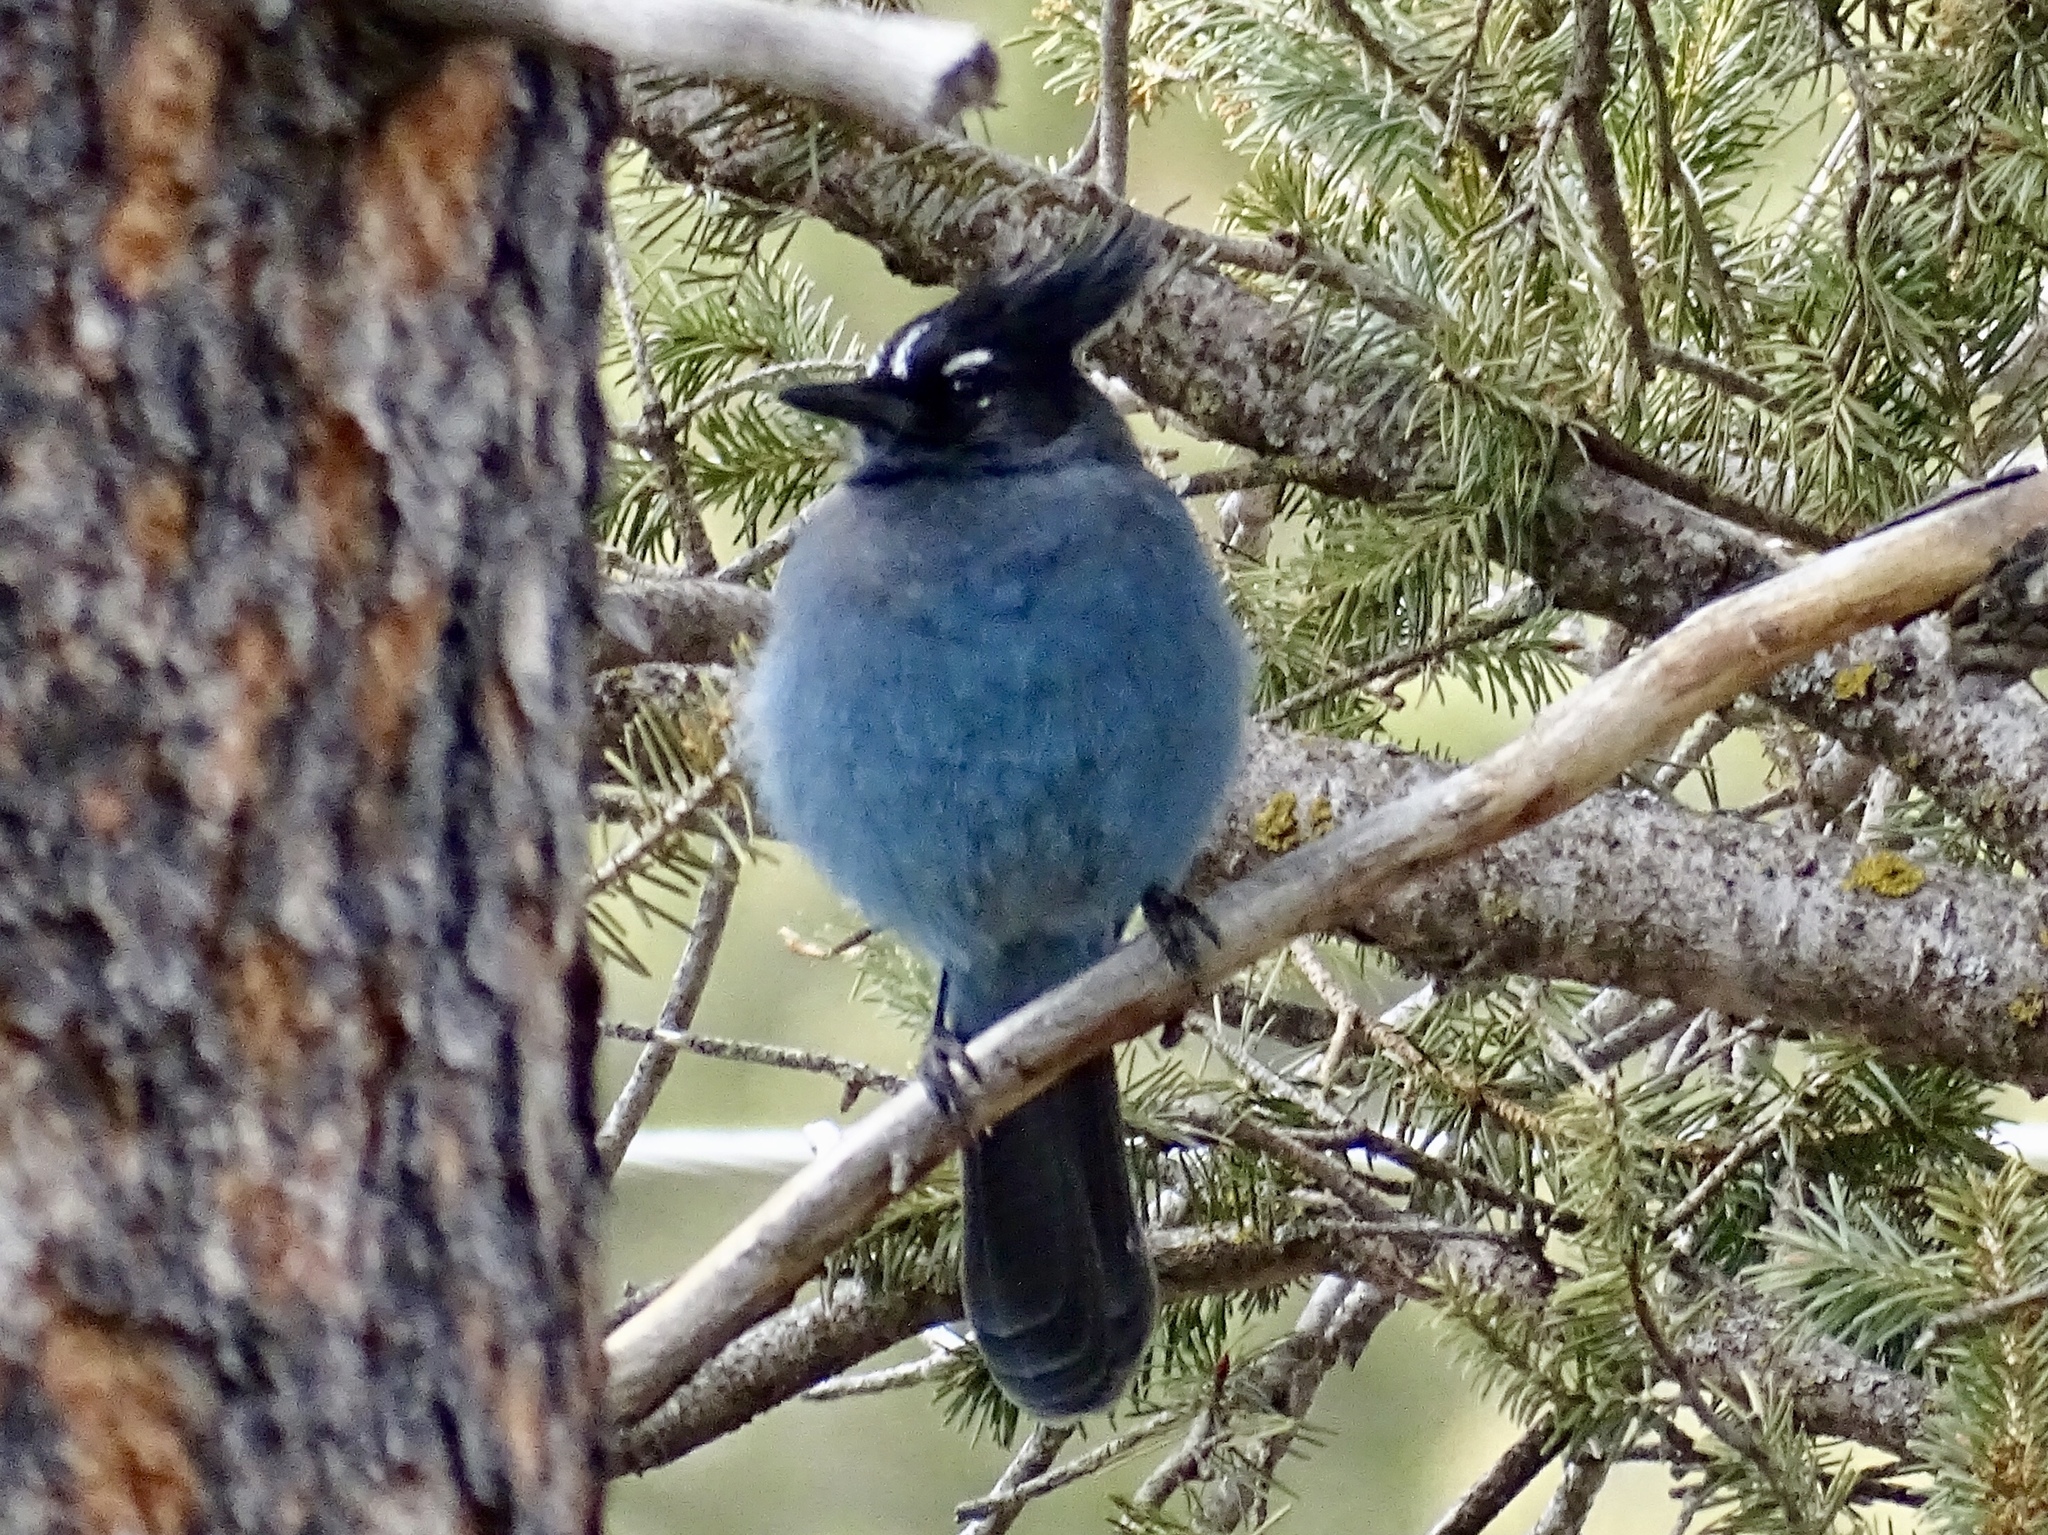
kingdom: Animalia
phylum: Chordata
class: Aves
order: Passeriformes
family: Corvidae
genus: Cyanocitta
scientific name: Cyanocitta stelleri
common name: Steller's jay
